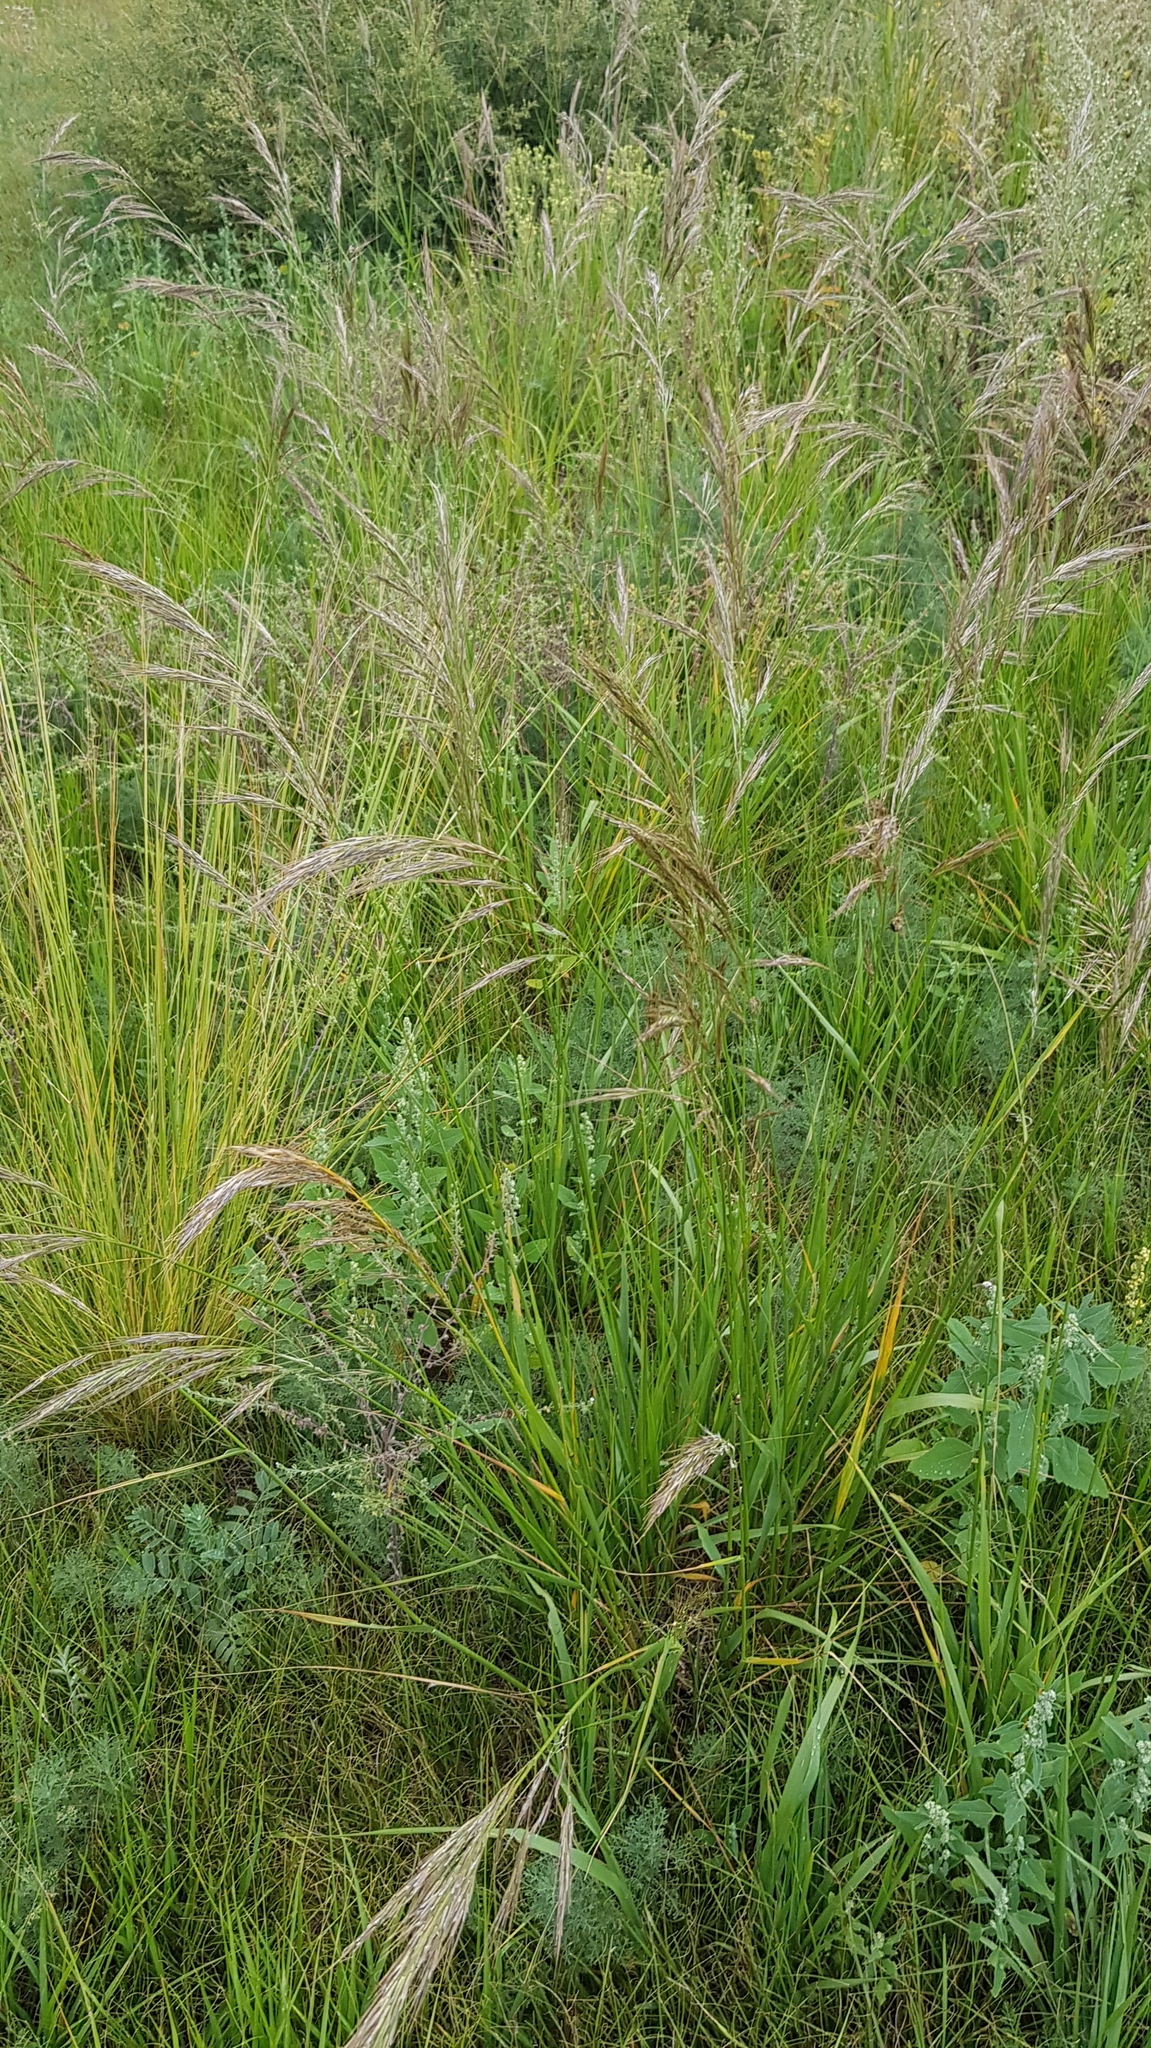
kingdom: Plantae
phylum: Tracheophyta
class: Liliopsida
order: Poales
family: Poaceae
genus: Neotrinia
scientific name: Neotrinia splendens
